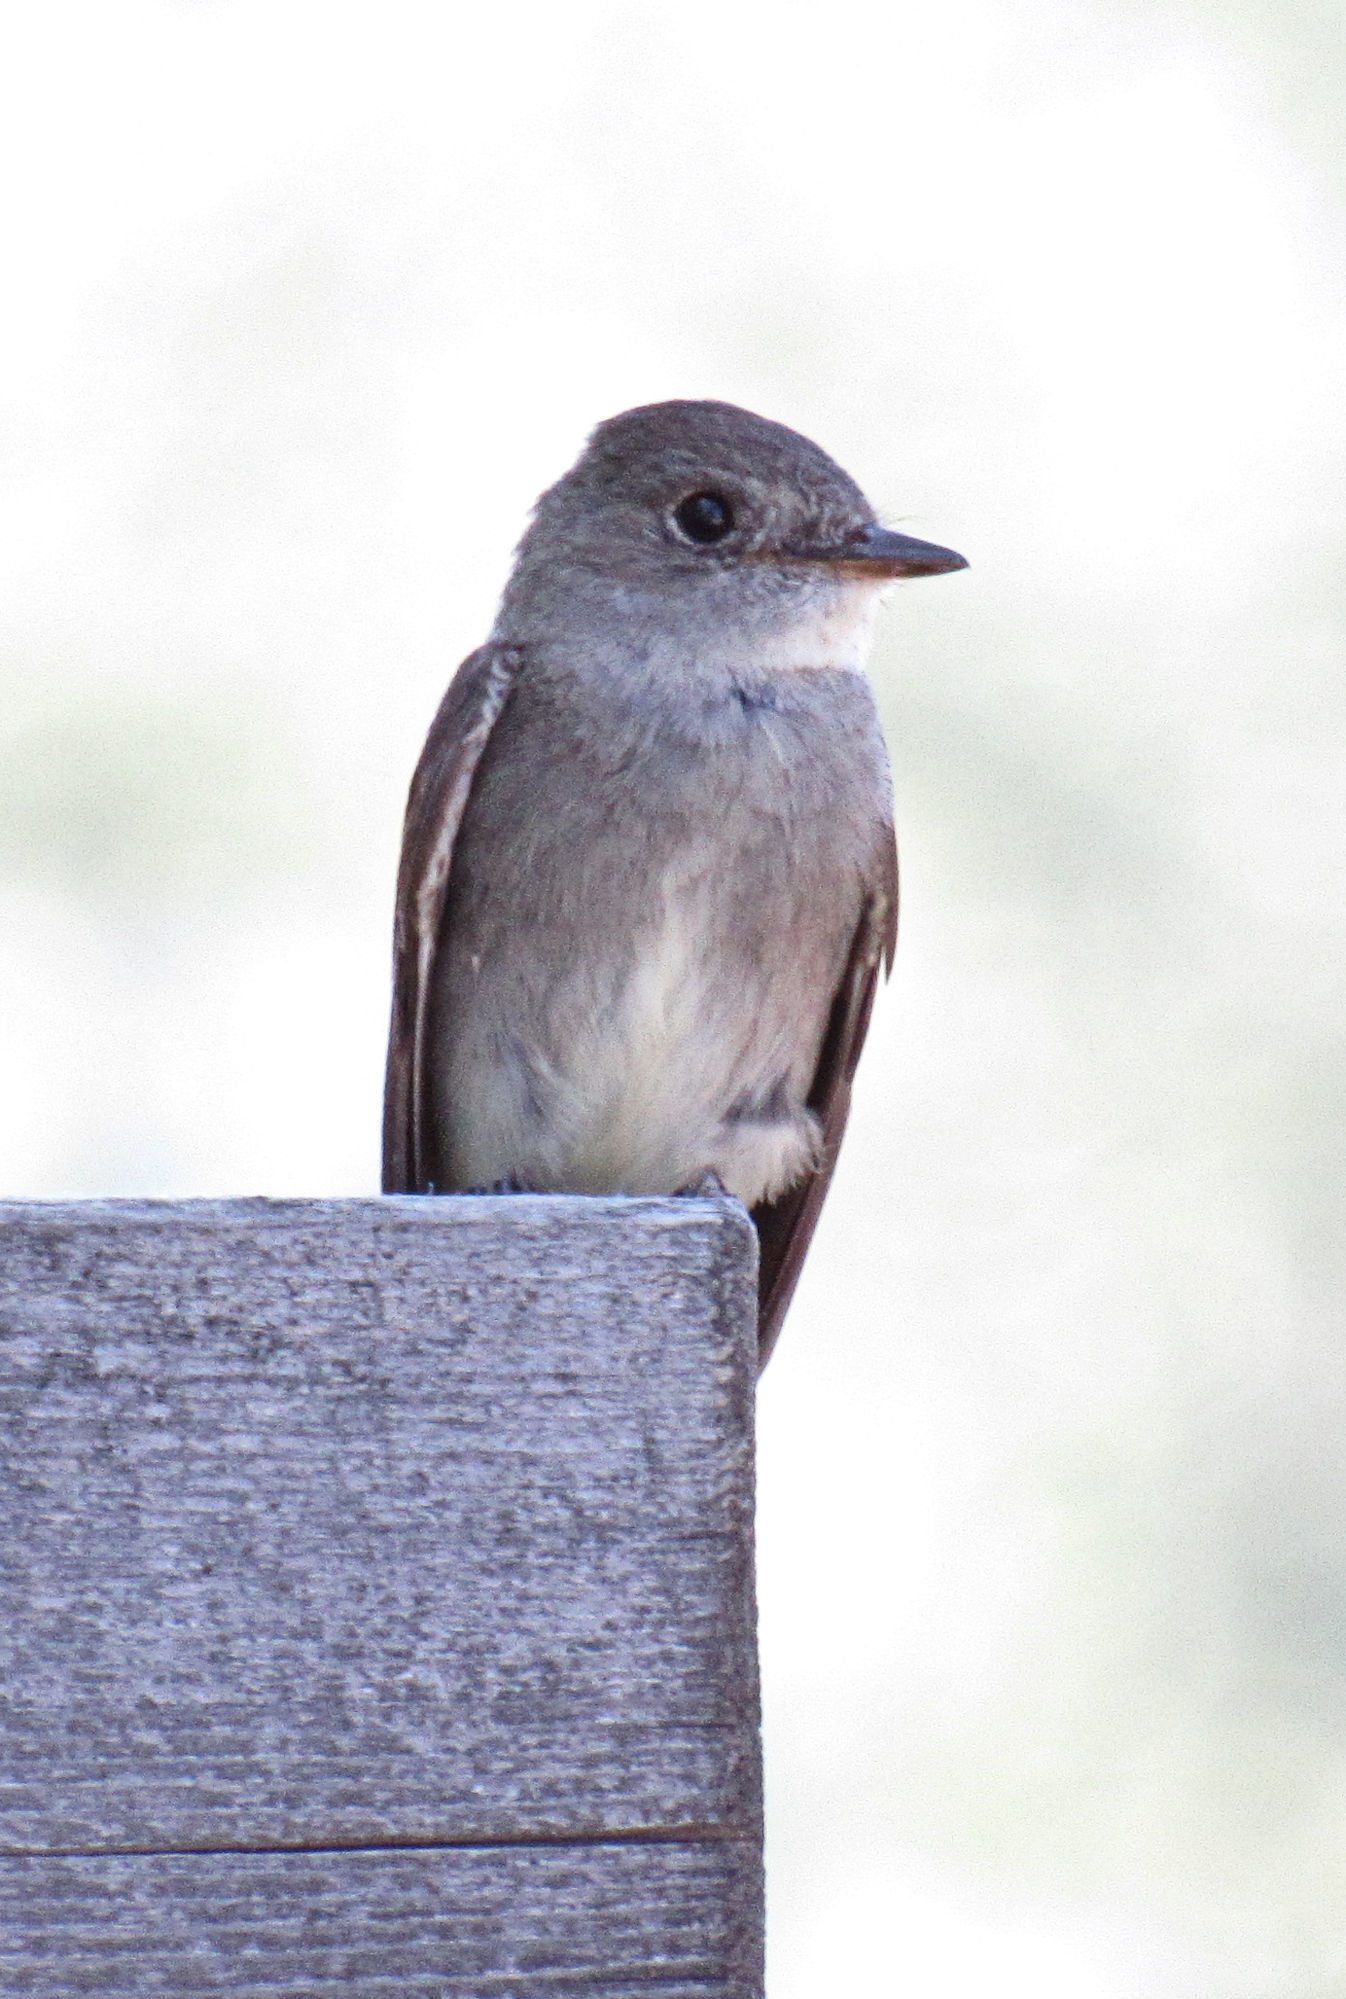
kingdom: Animalia
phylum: Chordata
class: Aves
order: Passeriformes
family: Tyrannidae
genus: Contopus
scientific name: Contopus sordidulus
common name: Western wood-pewee
